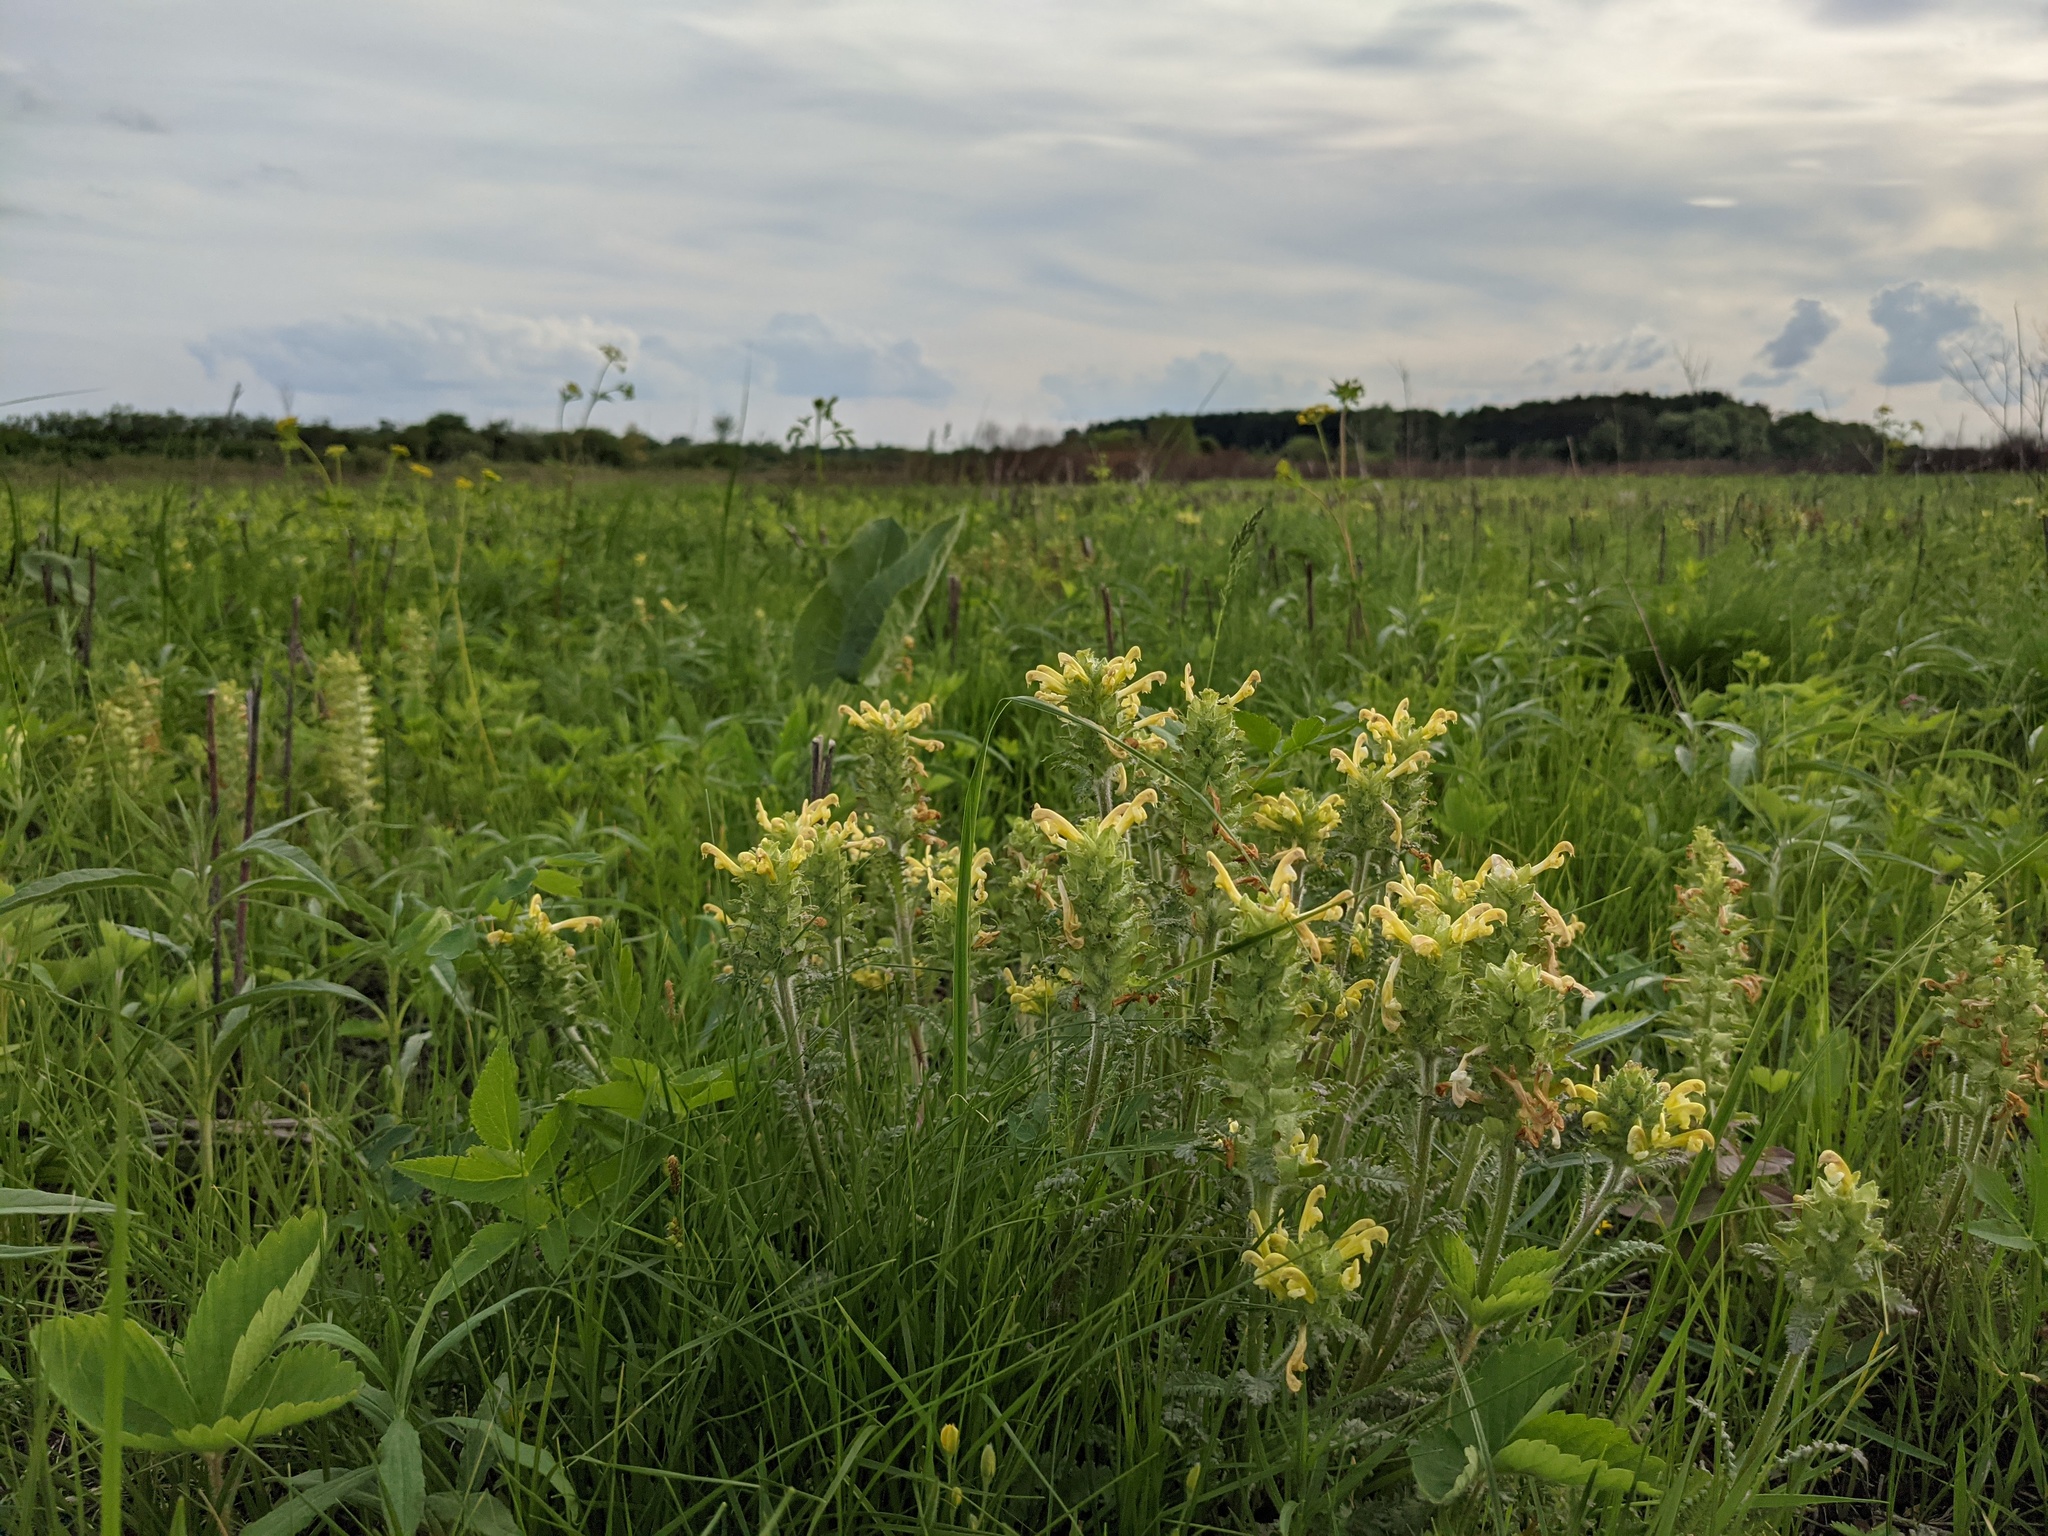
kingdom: Plantae
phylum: Tracheophyta
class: Magnoliopsida
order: Lamiales
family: Orobanchaceae
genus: Pedicularis
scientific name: Pedicularis canadensis
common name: Early lousewort
